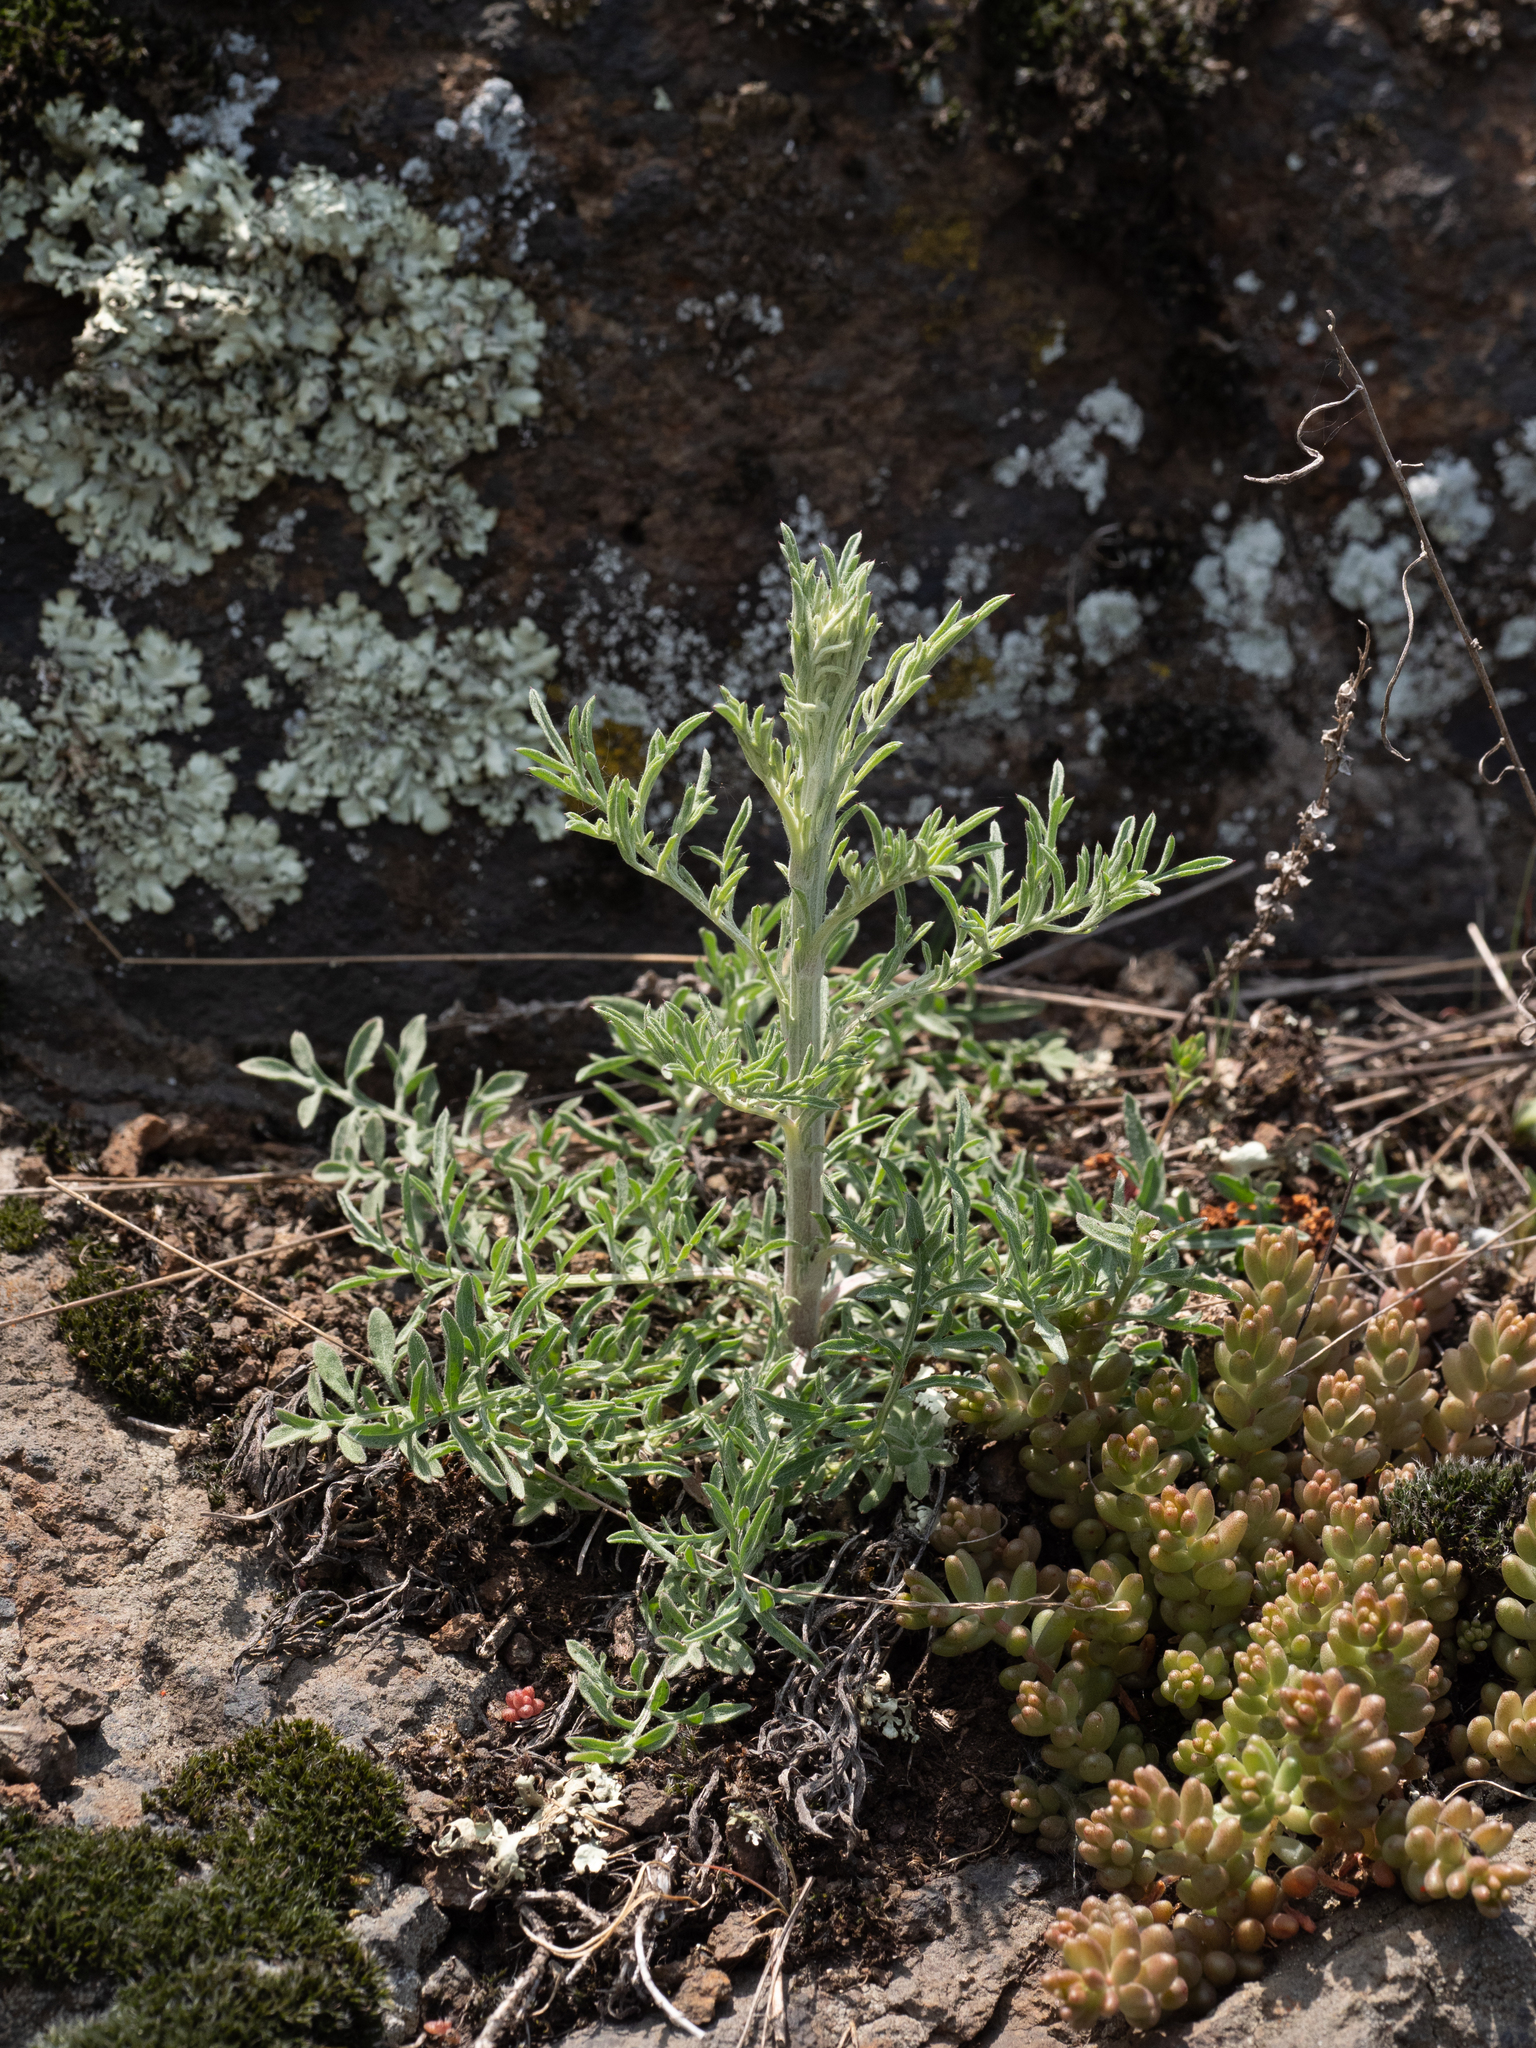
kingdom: Plantae
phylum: Tracheophyta
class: Magnoliopsida
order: Asterales
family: Asteraceae
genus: Centaurea
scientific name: Centaurea stoebe
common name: Spotted knapweed
